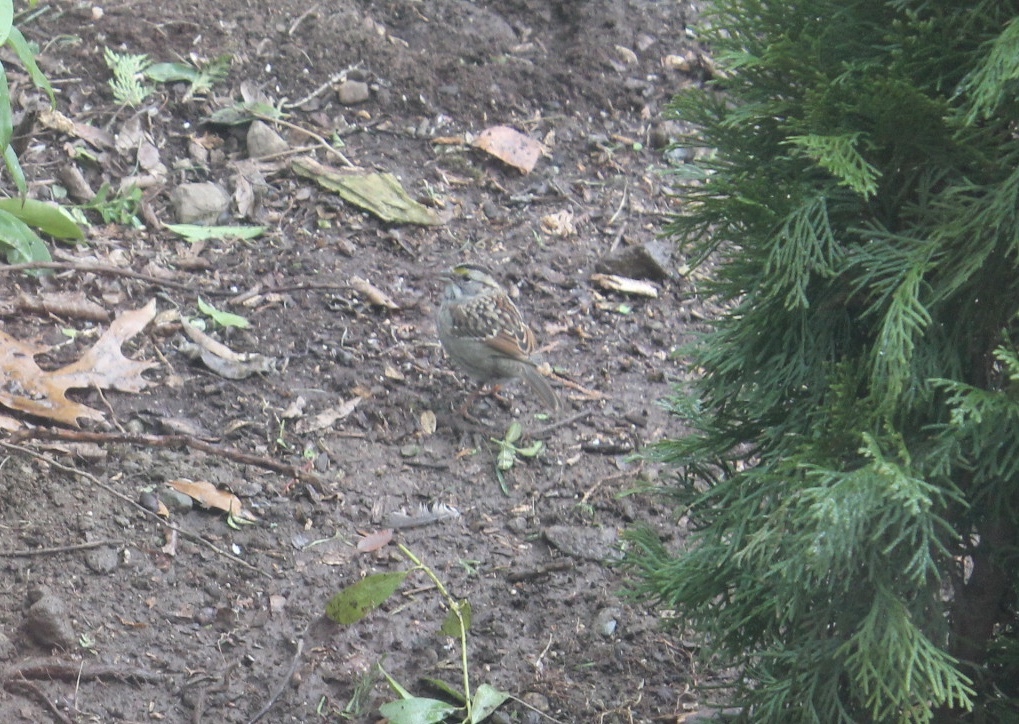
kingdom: Animalia
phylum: Chordata
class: Aves
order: Passeriformes
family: Passerellidae
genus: Zonotrichia
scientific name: Zonotrichia albicollis
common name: White-throated sparrow
